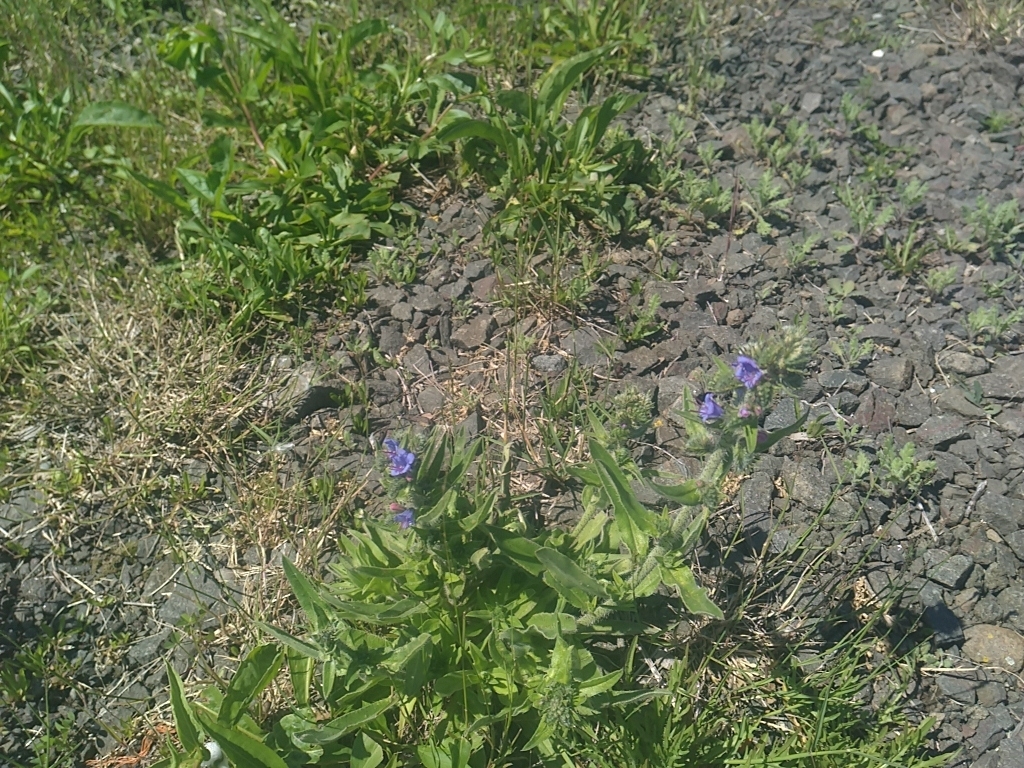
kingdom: Plantae
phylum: Tracheophyta
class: Magnoliopsida
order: Boraginales
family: Boraginaceae
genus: Echium
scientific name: Echium vulgare
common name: Common viper's bugloss
